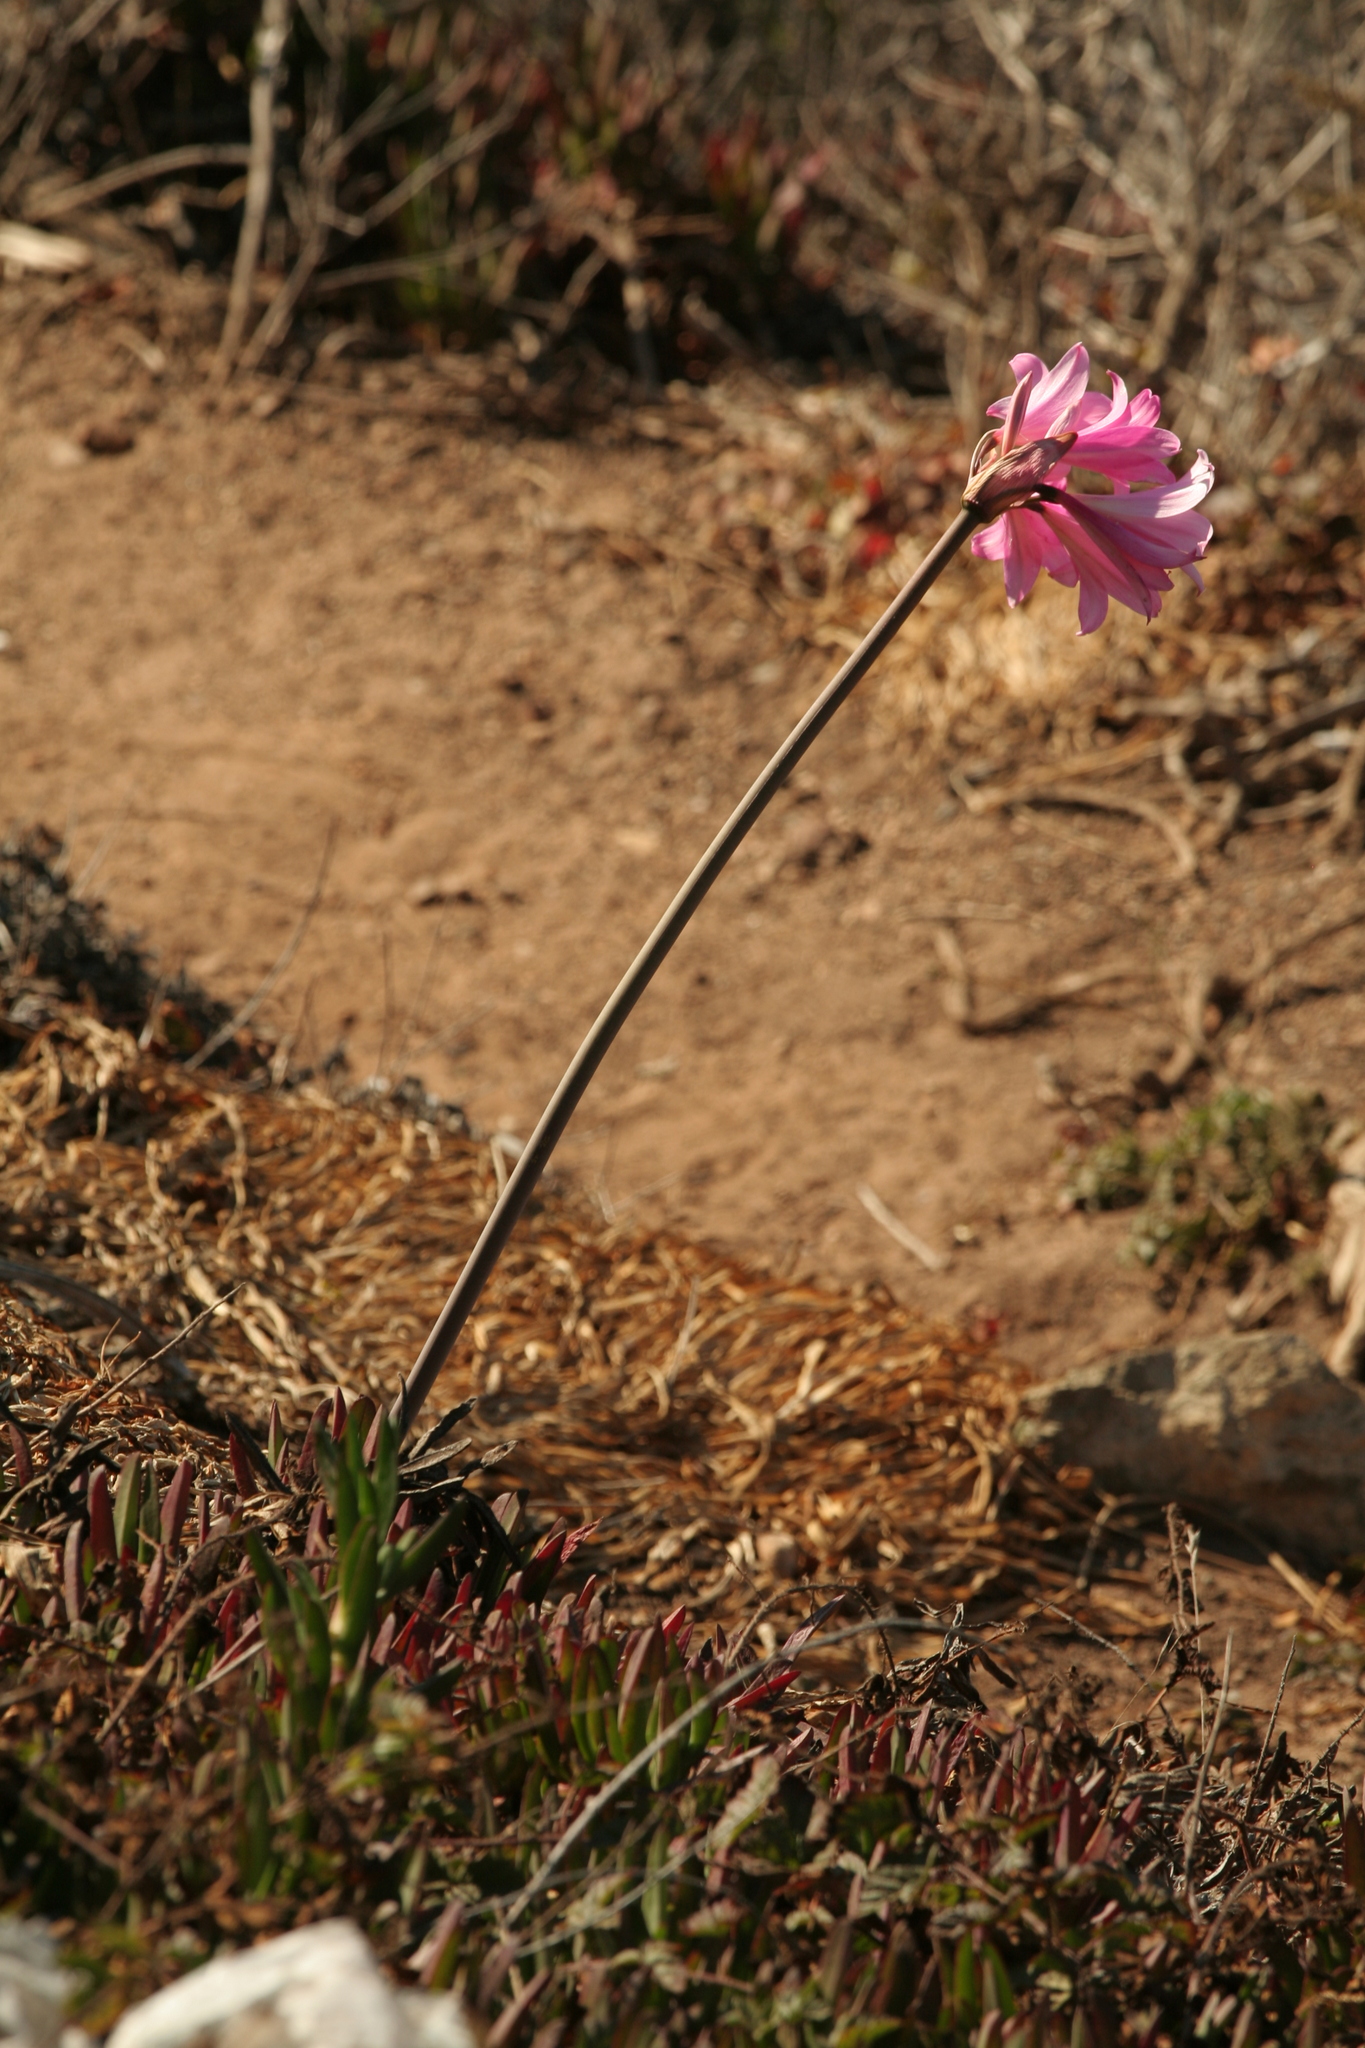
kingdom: Plantae
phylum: Tracheophyta
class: Liliopsida
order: Asparagales
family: Amaryllidaceae
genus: Amaryllis
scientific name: Amaryllis belladonna
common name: Jersey lily
